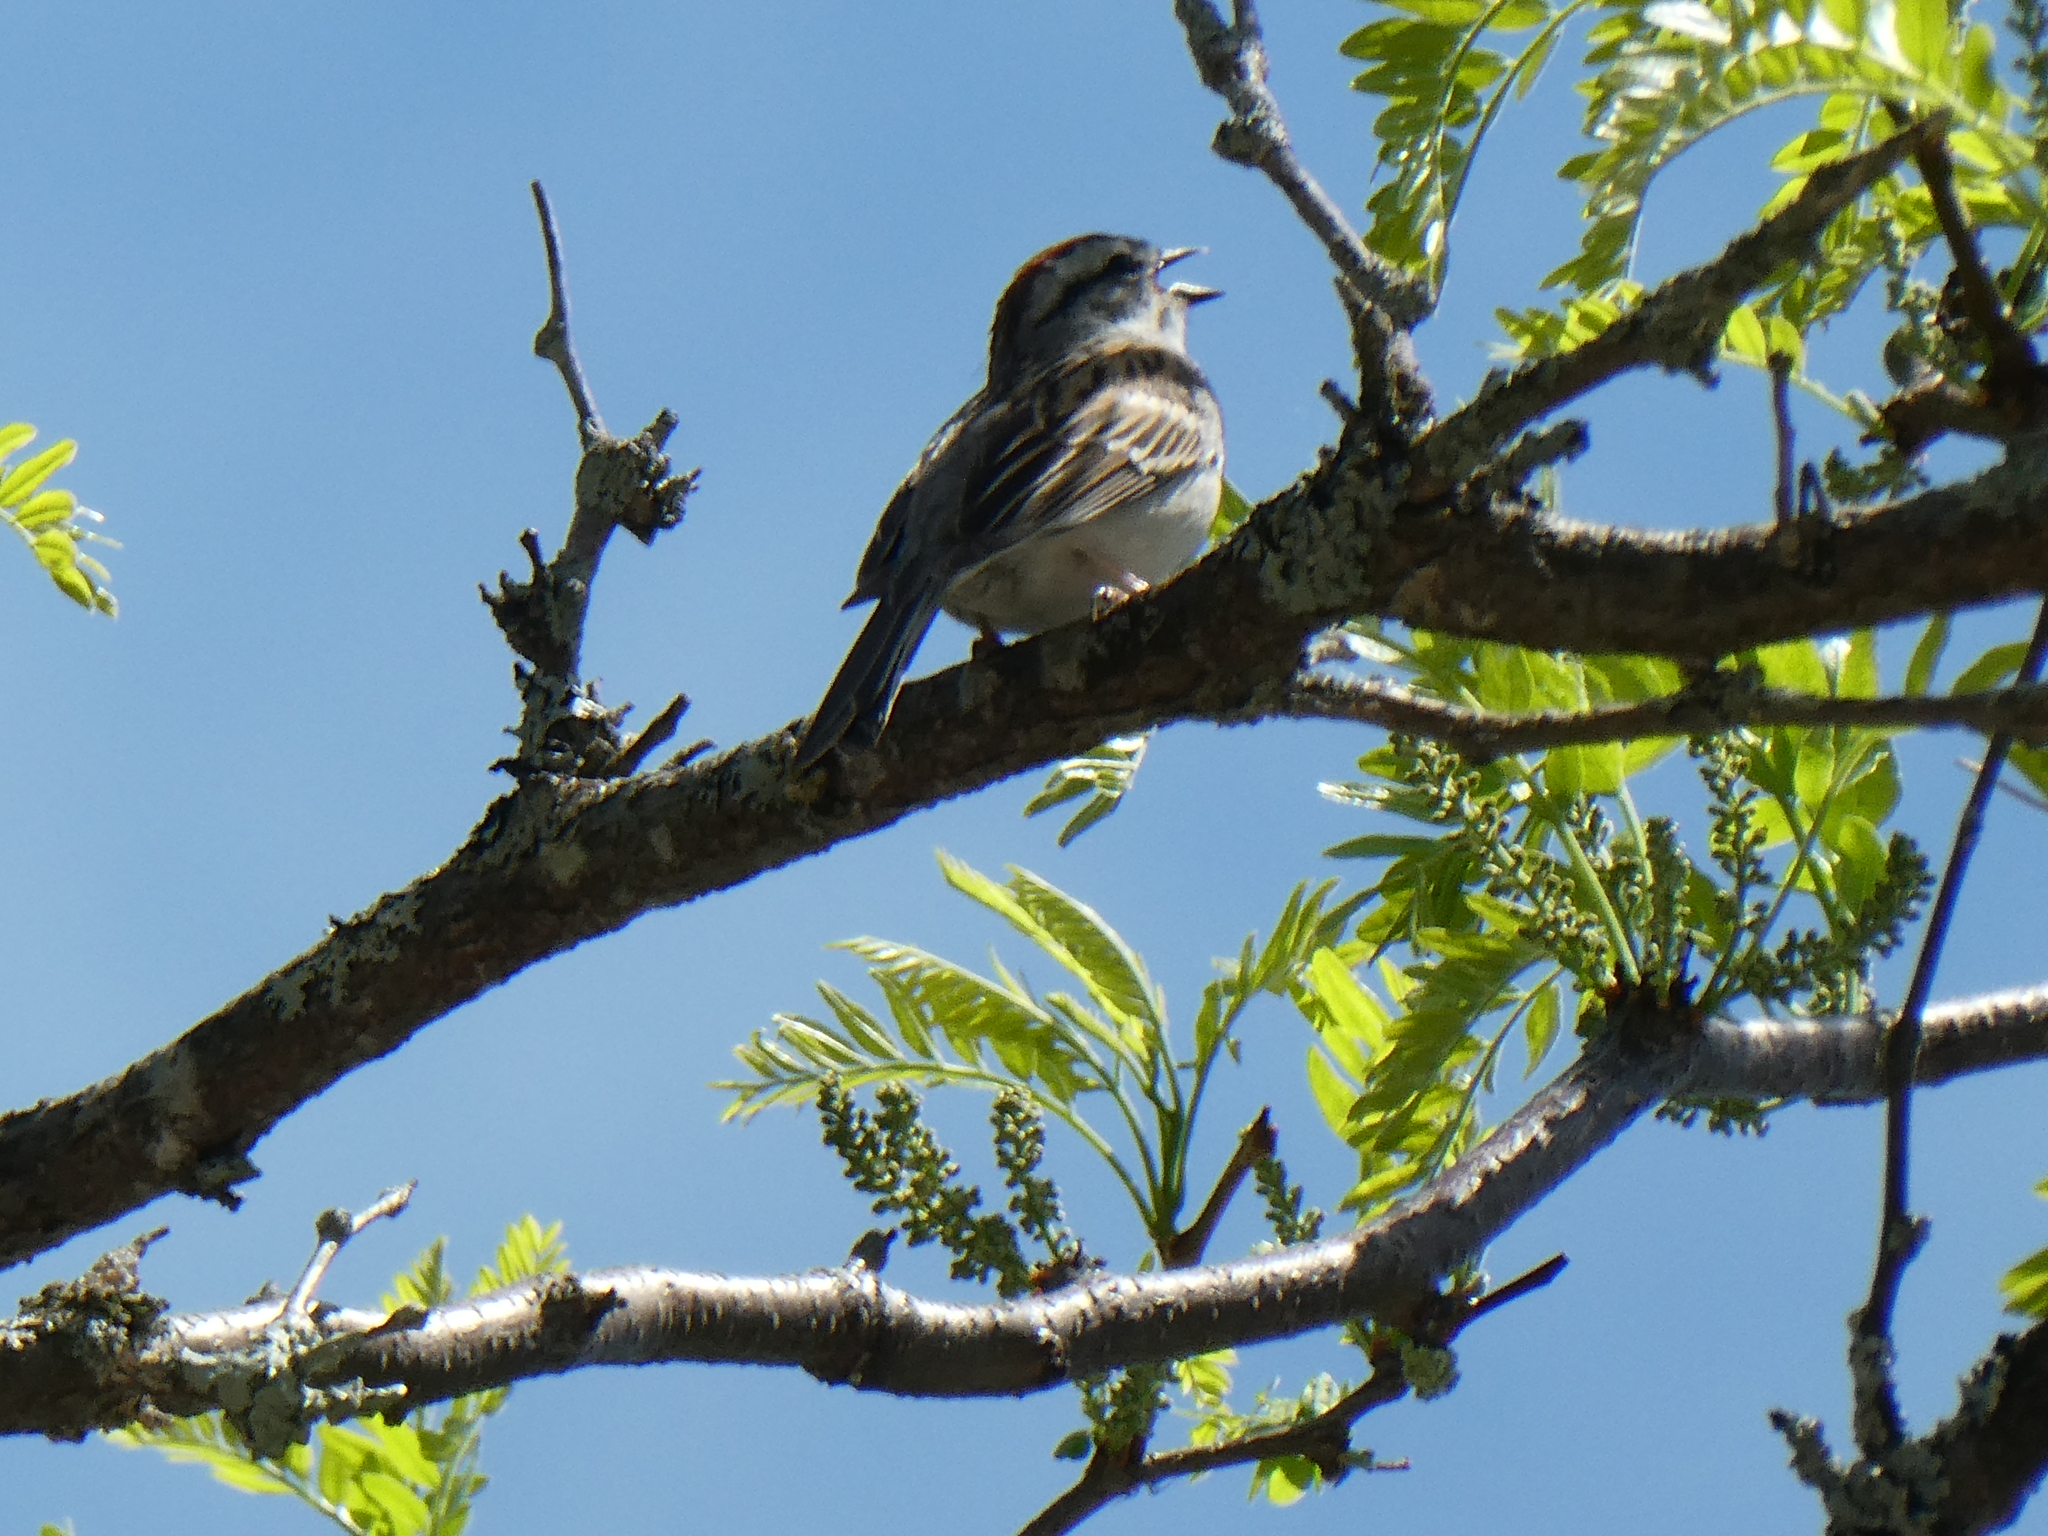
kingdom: Animalia
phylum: Chordata
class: Aves
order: Passeriformes
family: Passerellidae
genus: Spizella
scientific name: Spizella passerina
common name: Chipping sparrow
